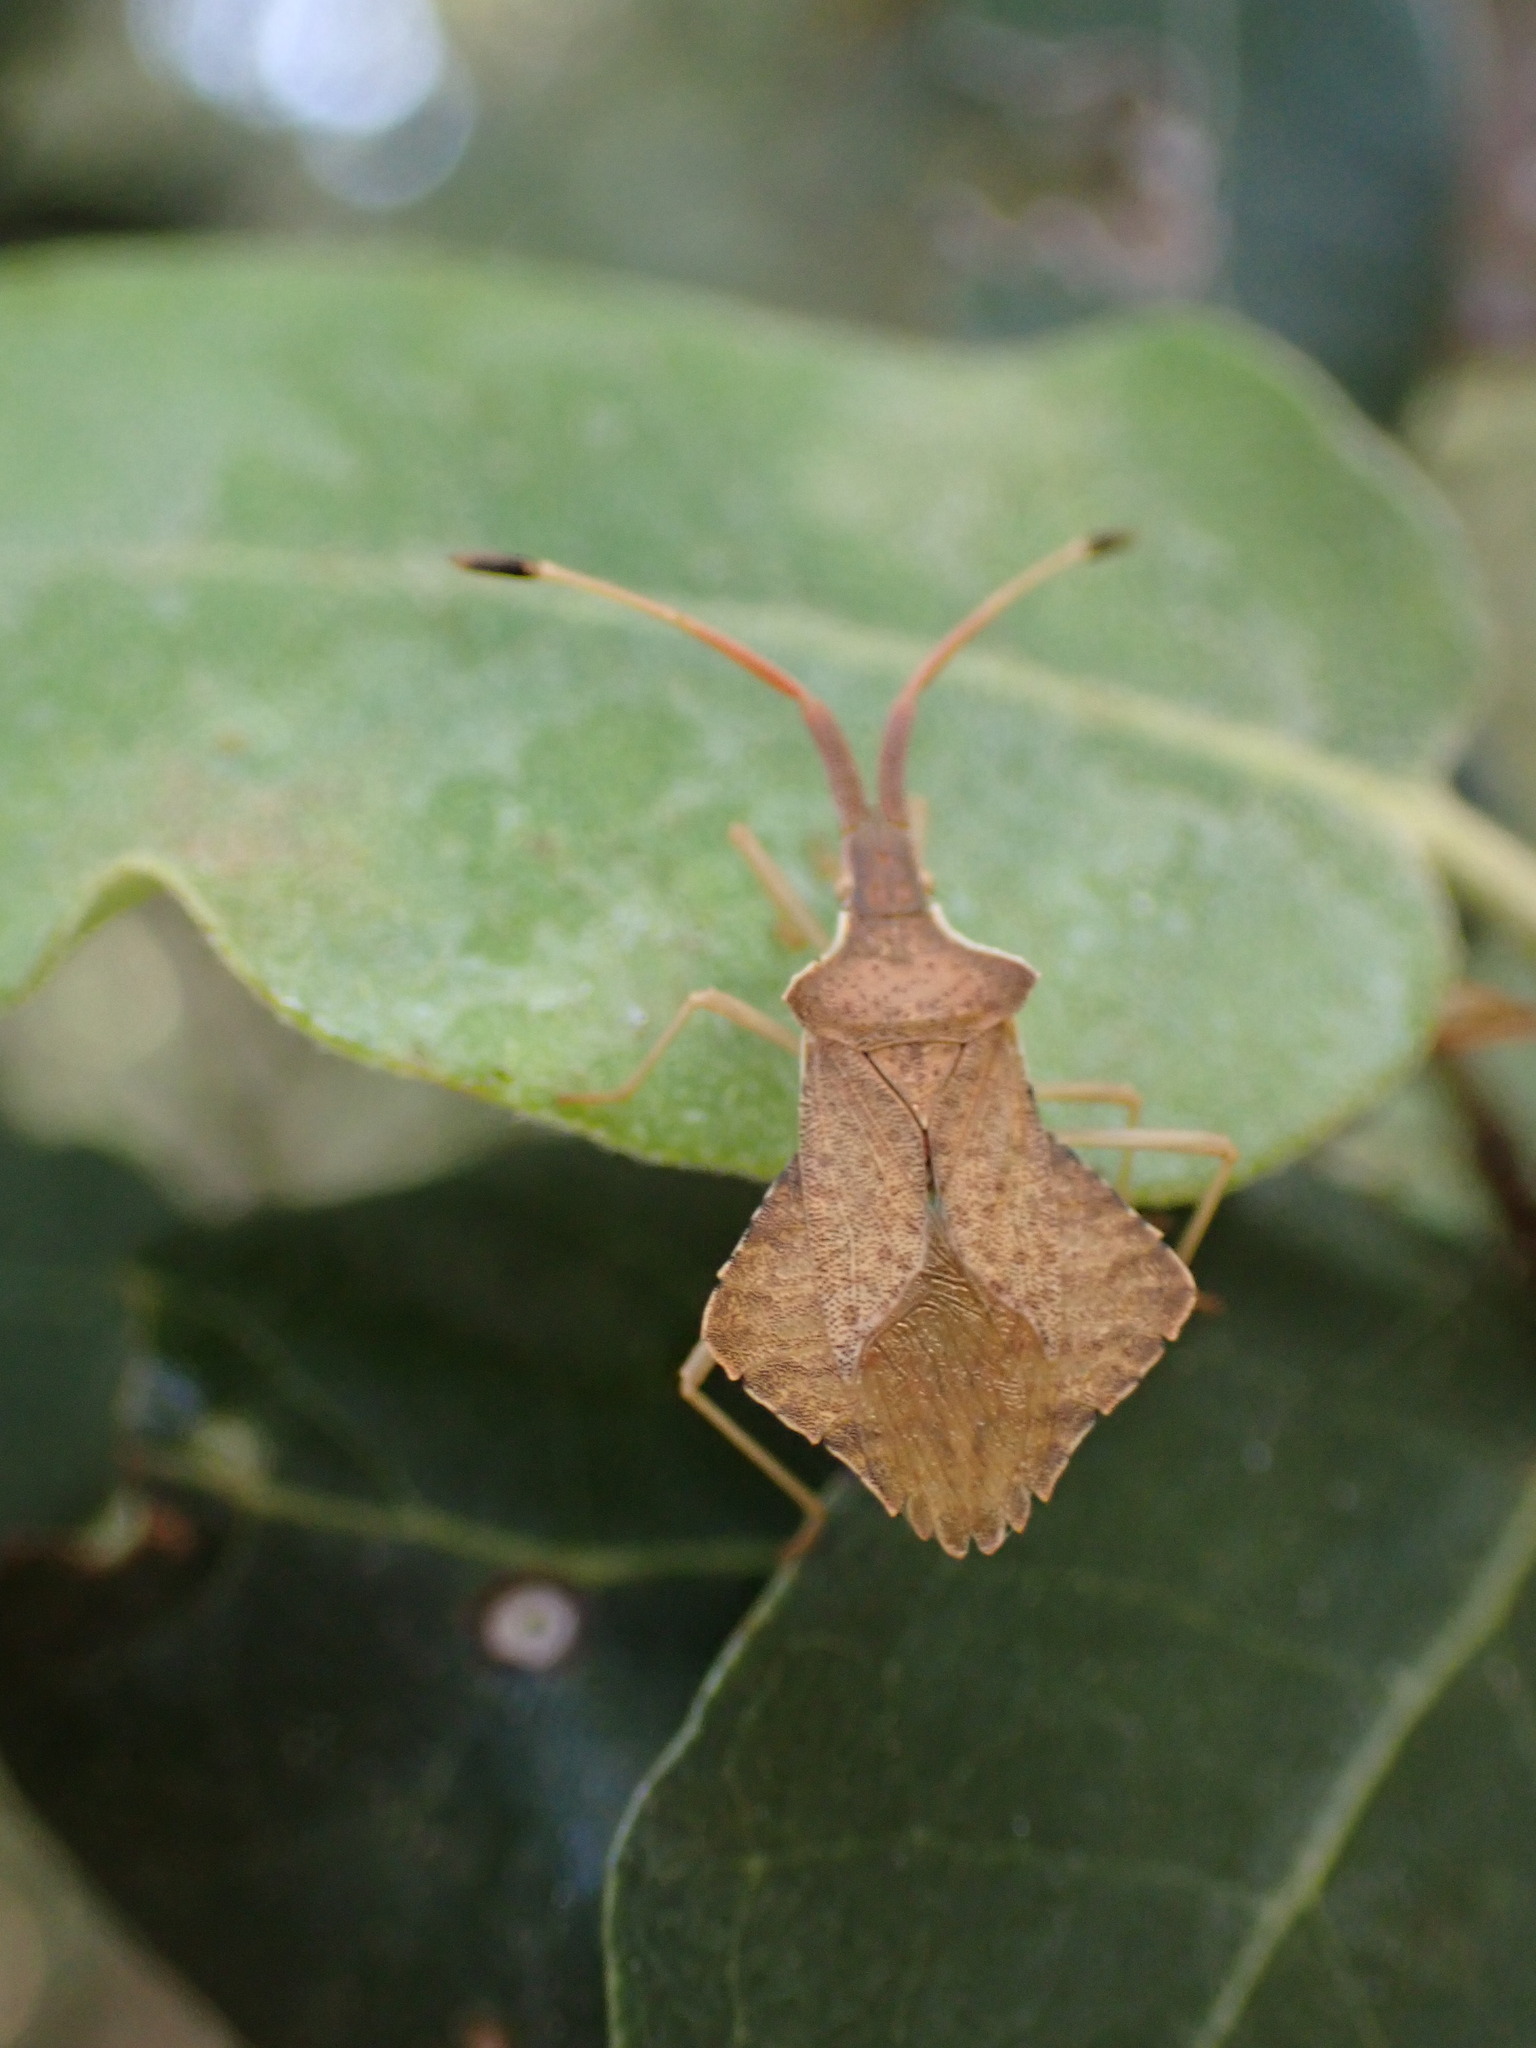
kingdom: Animalia
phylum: Arthropoda
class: Insecta
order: Hemiptera
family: Coreidae
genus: Syromastus
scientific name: Syromastus rhombeus
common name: Rhombic leatherbug
